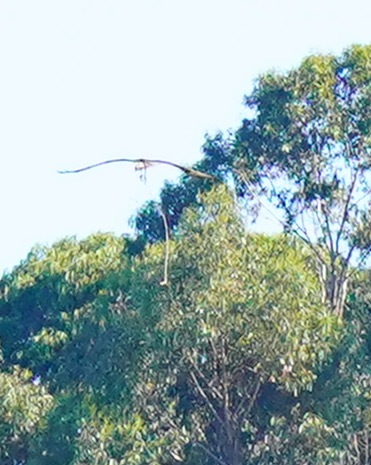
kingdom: Animalia
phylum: Chordata
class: Aves
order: Accipitriformes
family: Pandionidae
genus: Pandion
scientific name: Pandion haliaetus
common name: Osprey
